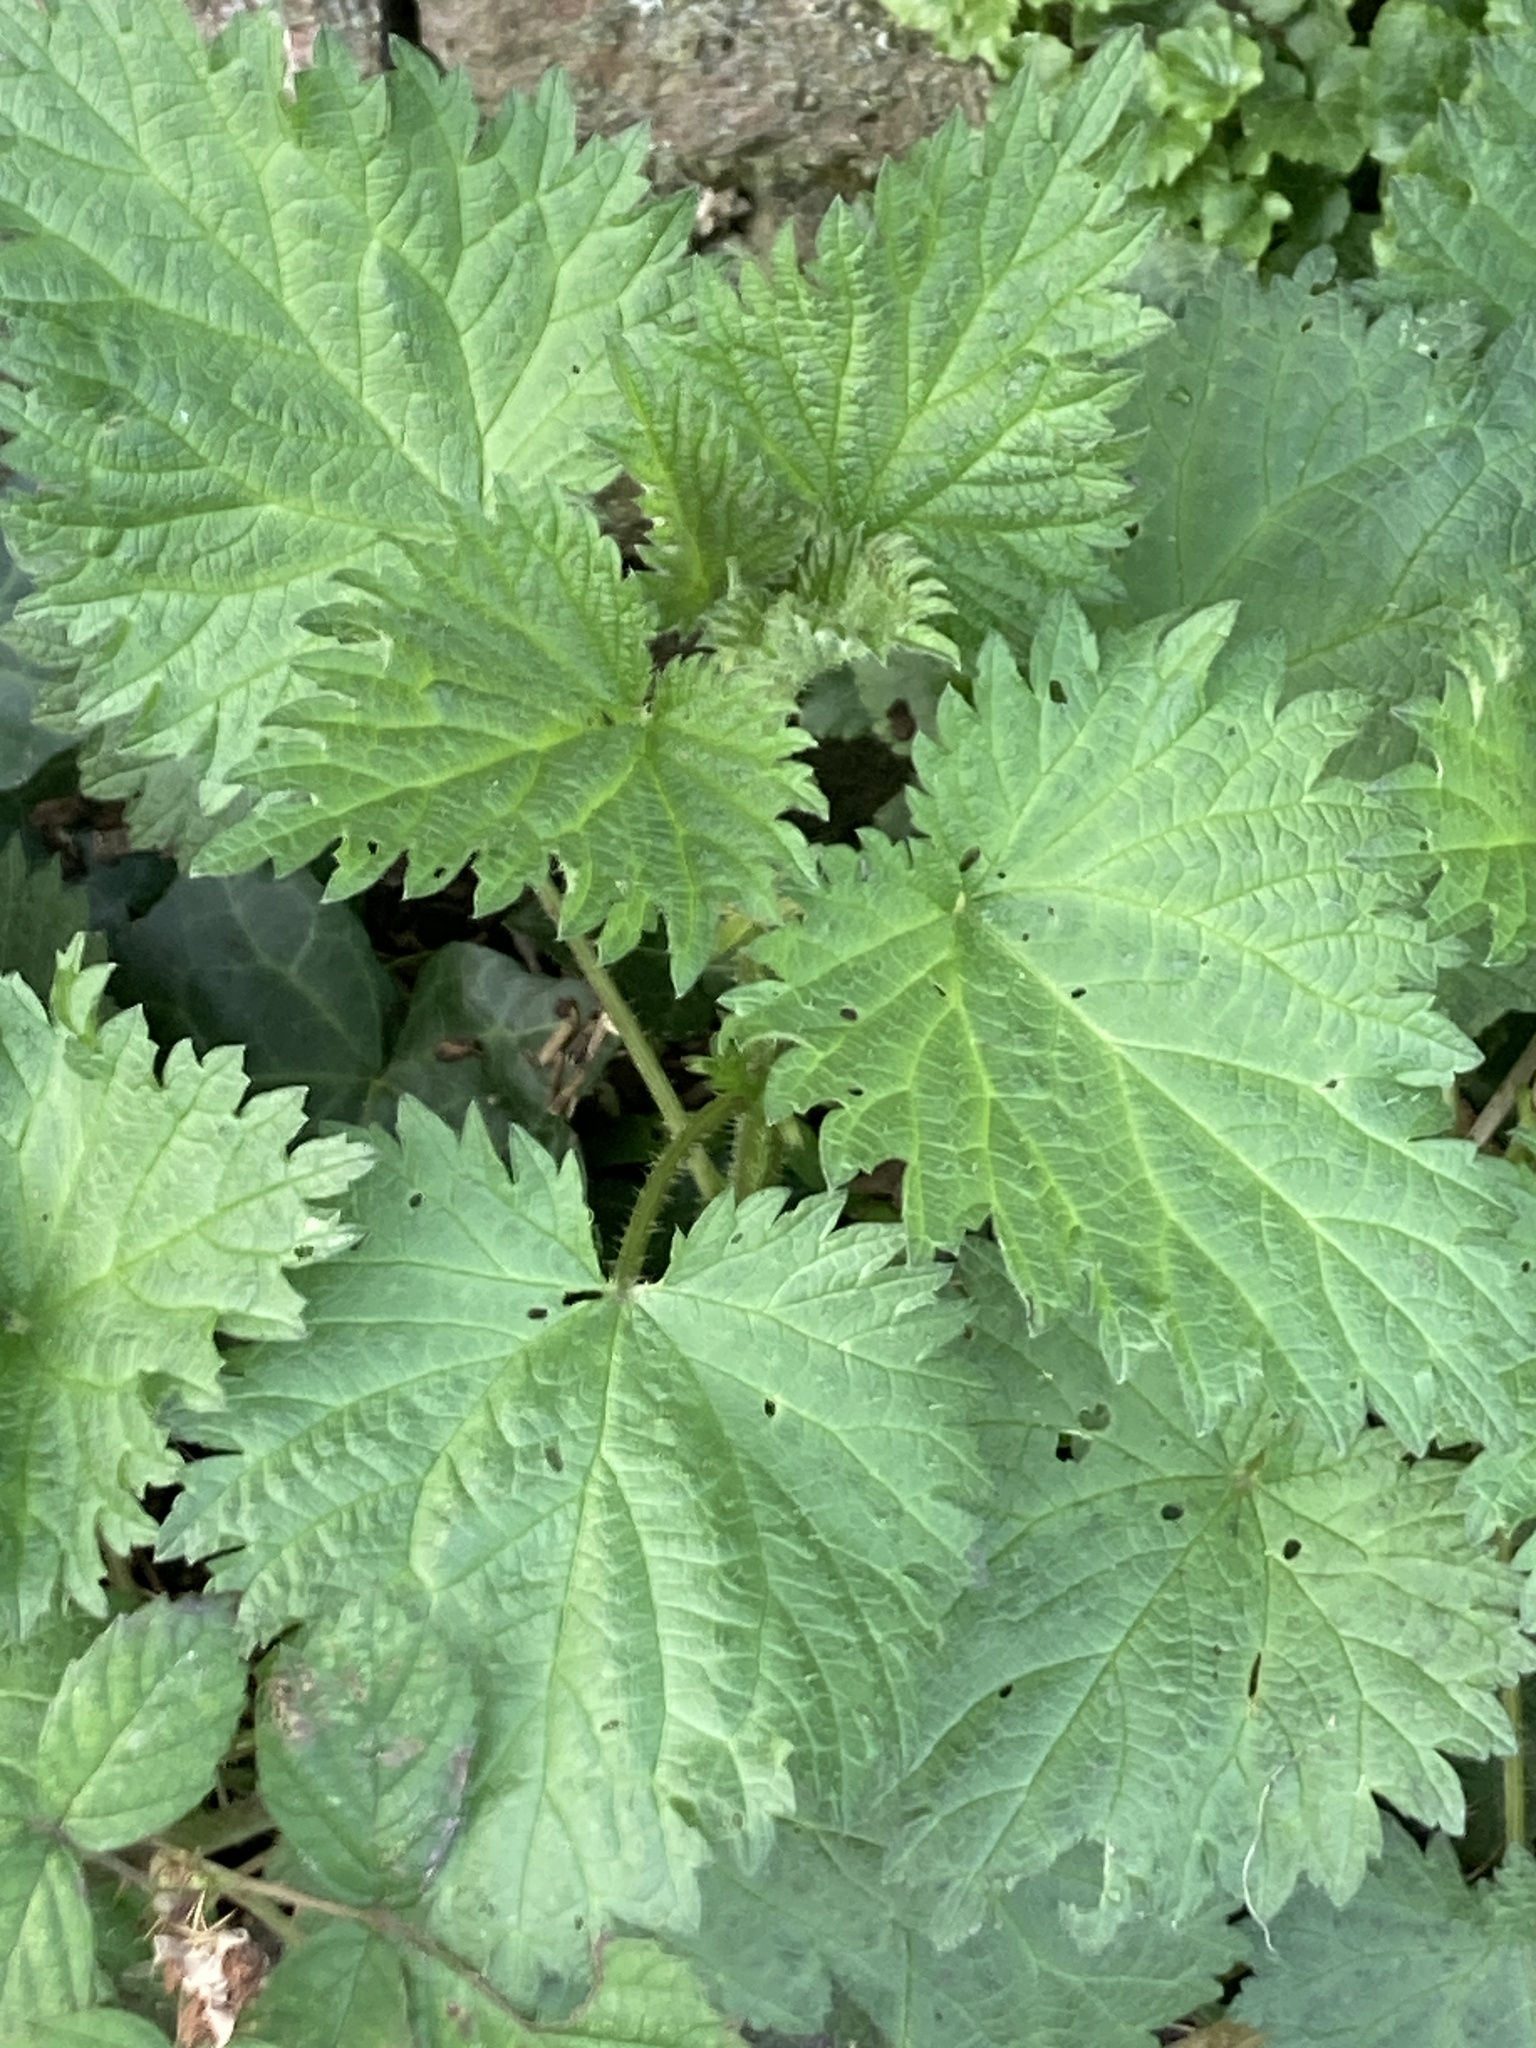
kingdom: Plantae
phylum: Tracheophyta
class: Magnoliopsida
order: Rosales
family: Urticaceae
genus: Urtica
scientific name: Urtica dioica
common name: Common nettle
